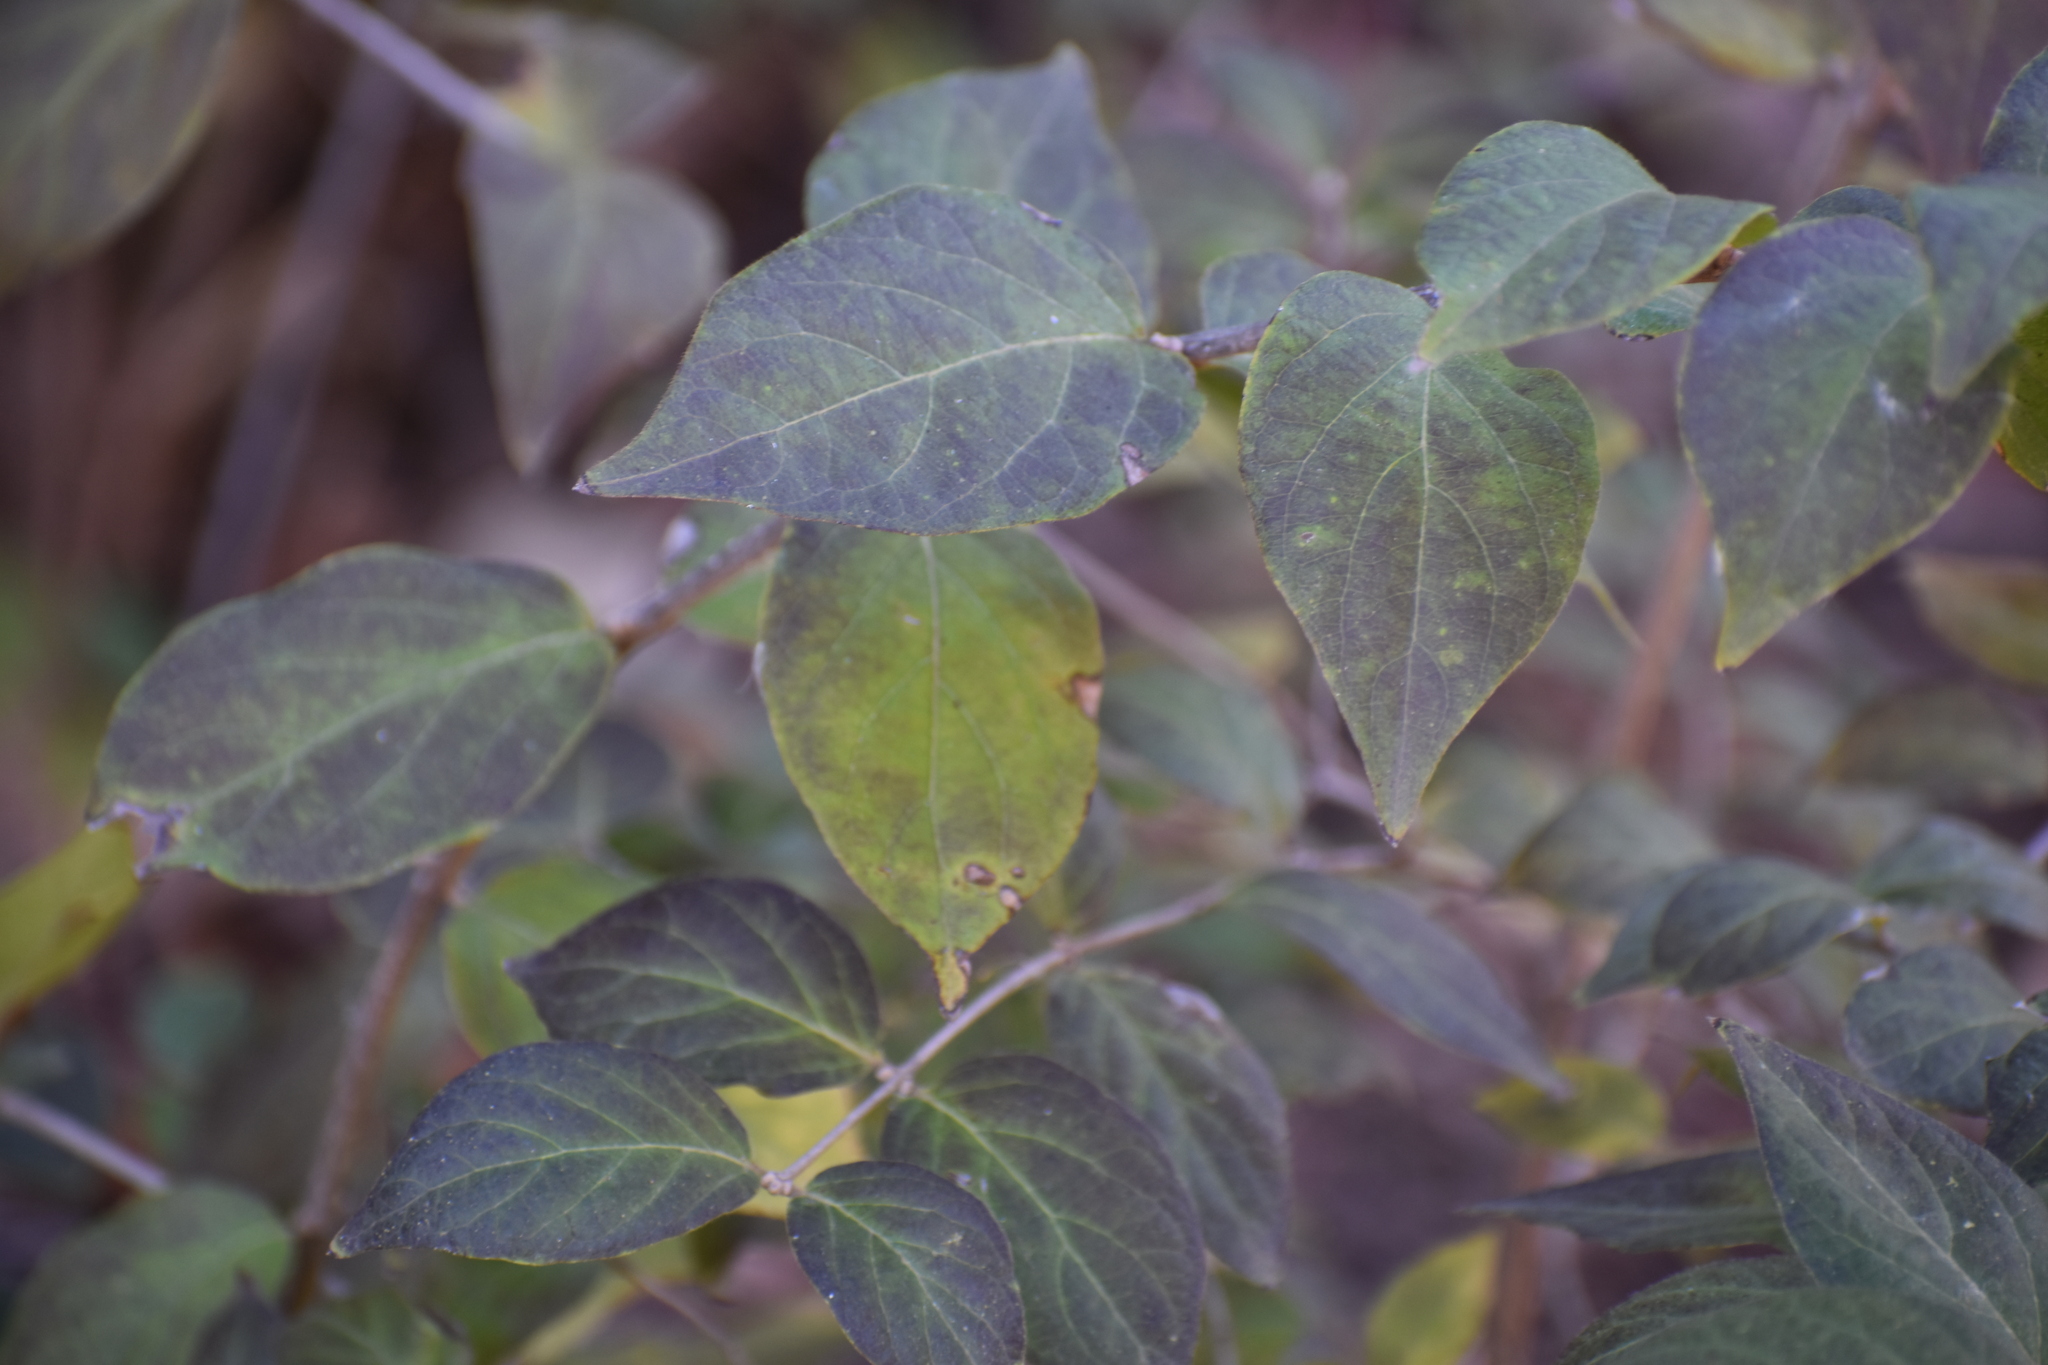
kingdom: Plantae
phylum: Tracheophyta
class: Magnoliopsida
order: Dipsacales
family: Caprifoliaceae
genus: Lonicera
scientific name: Lonicera maackii
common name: Amur honeysuckle
